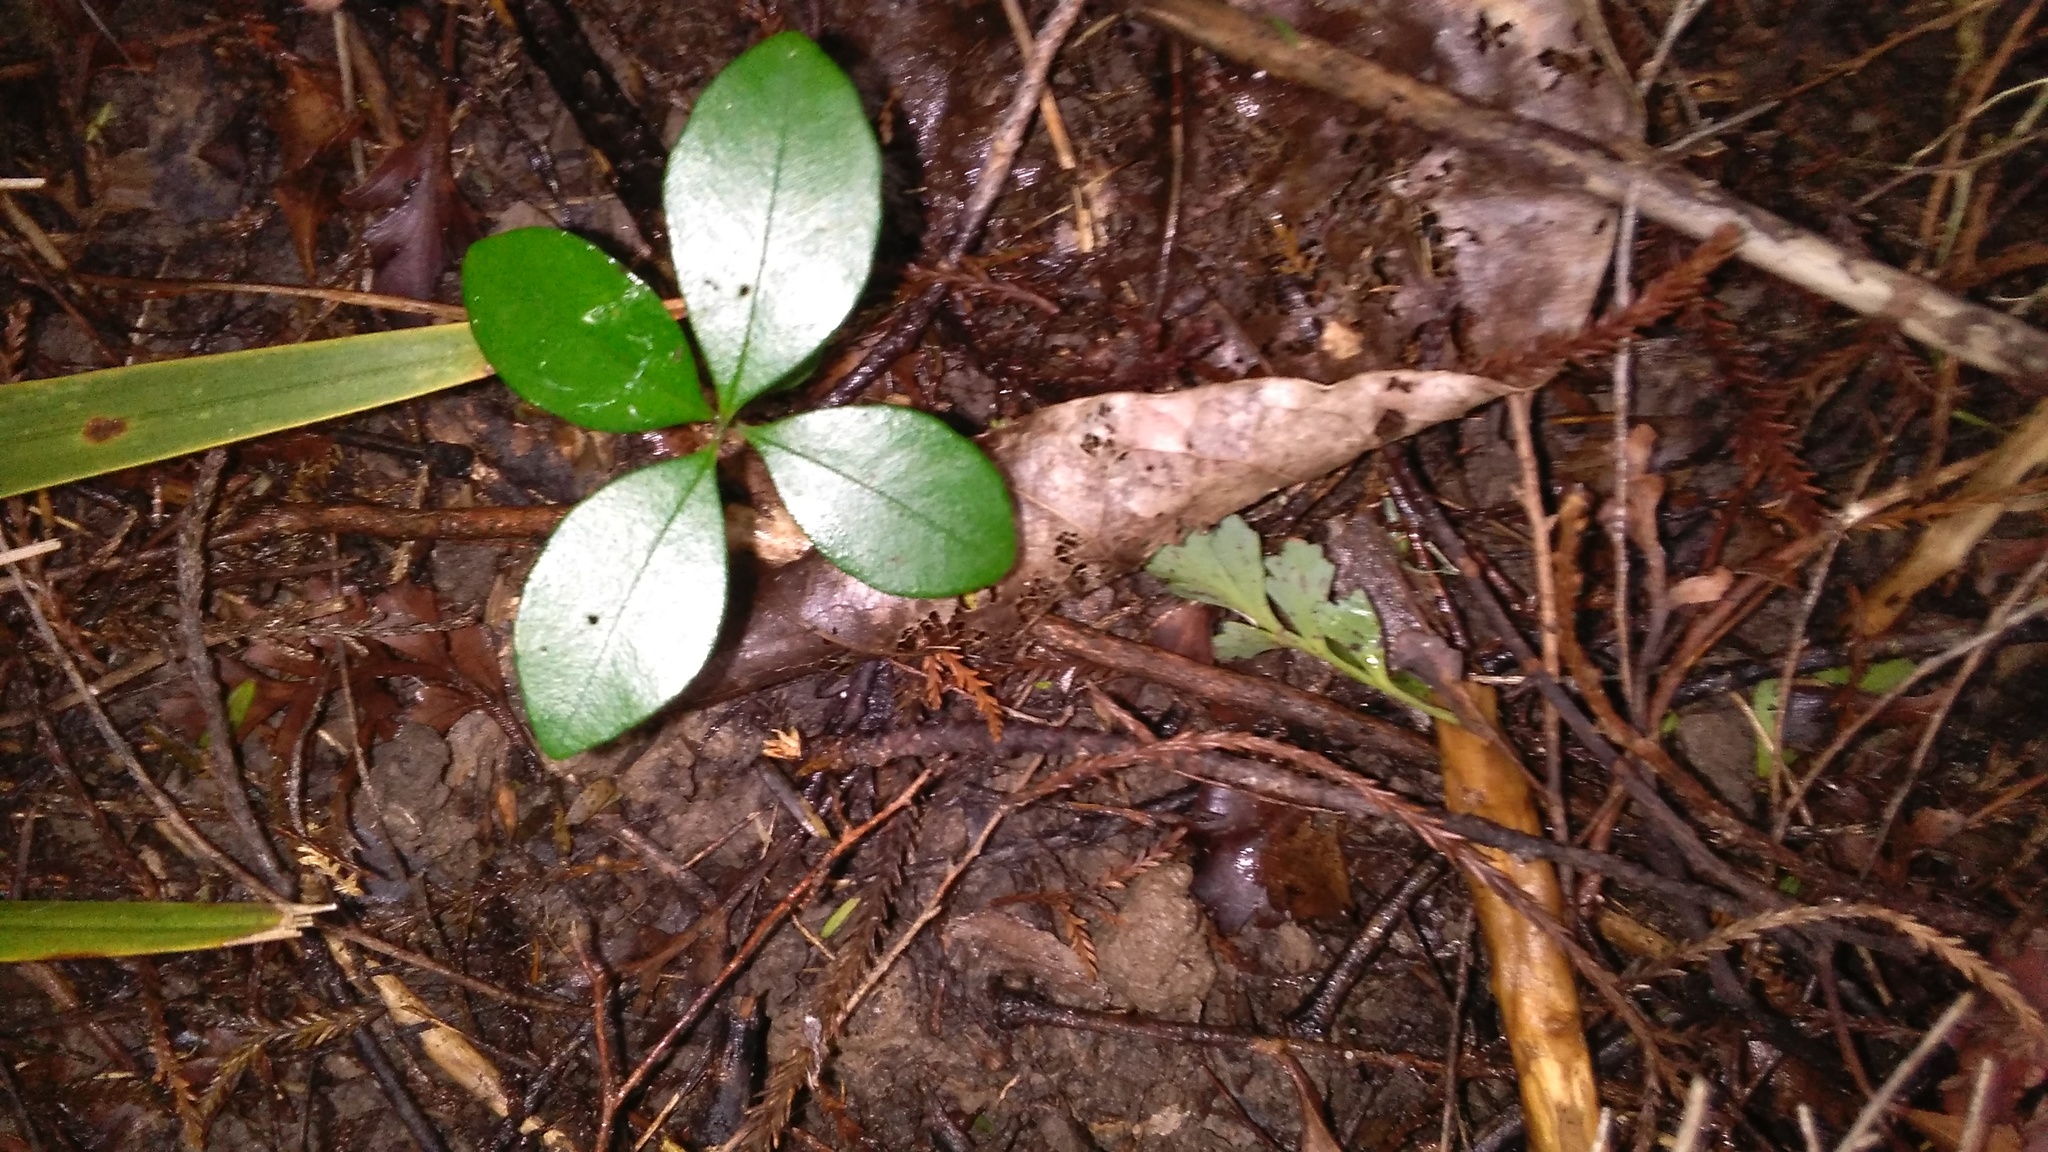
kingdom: Plantae
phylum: Tracheophyta
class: Magnoliopsida
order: Lamiales
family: Oleaceae
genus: Ligustrum
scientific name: Ligustrum sinense
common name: Chinese privet
